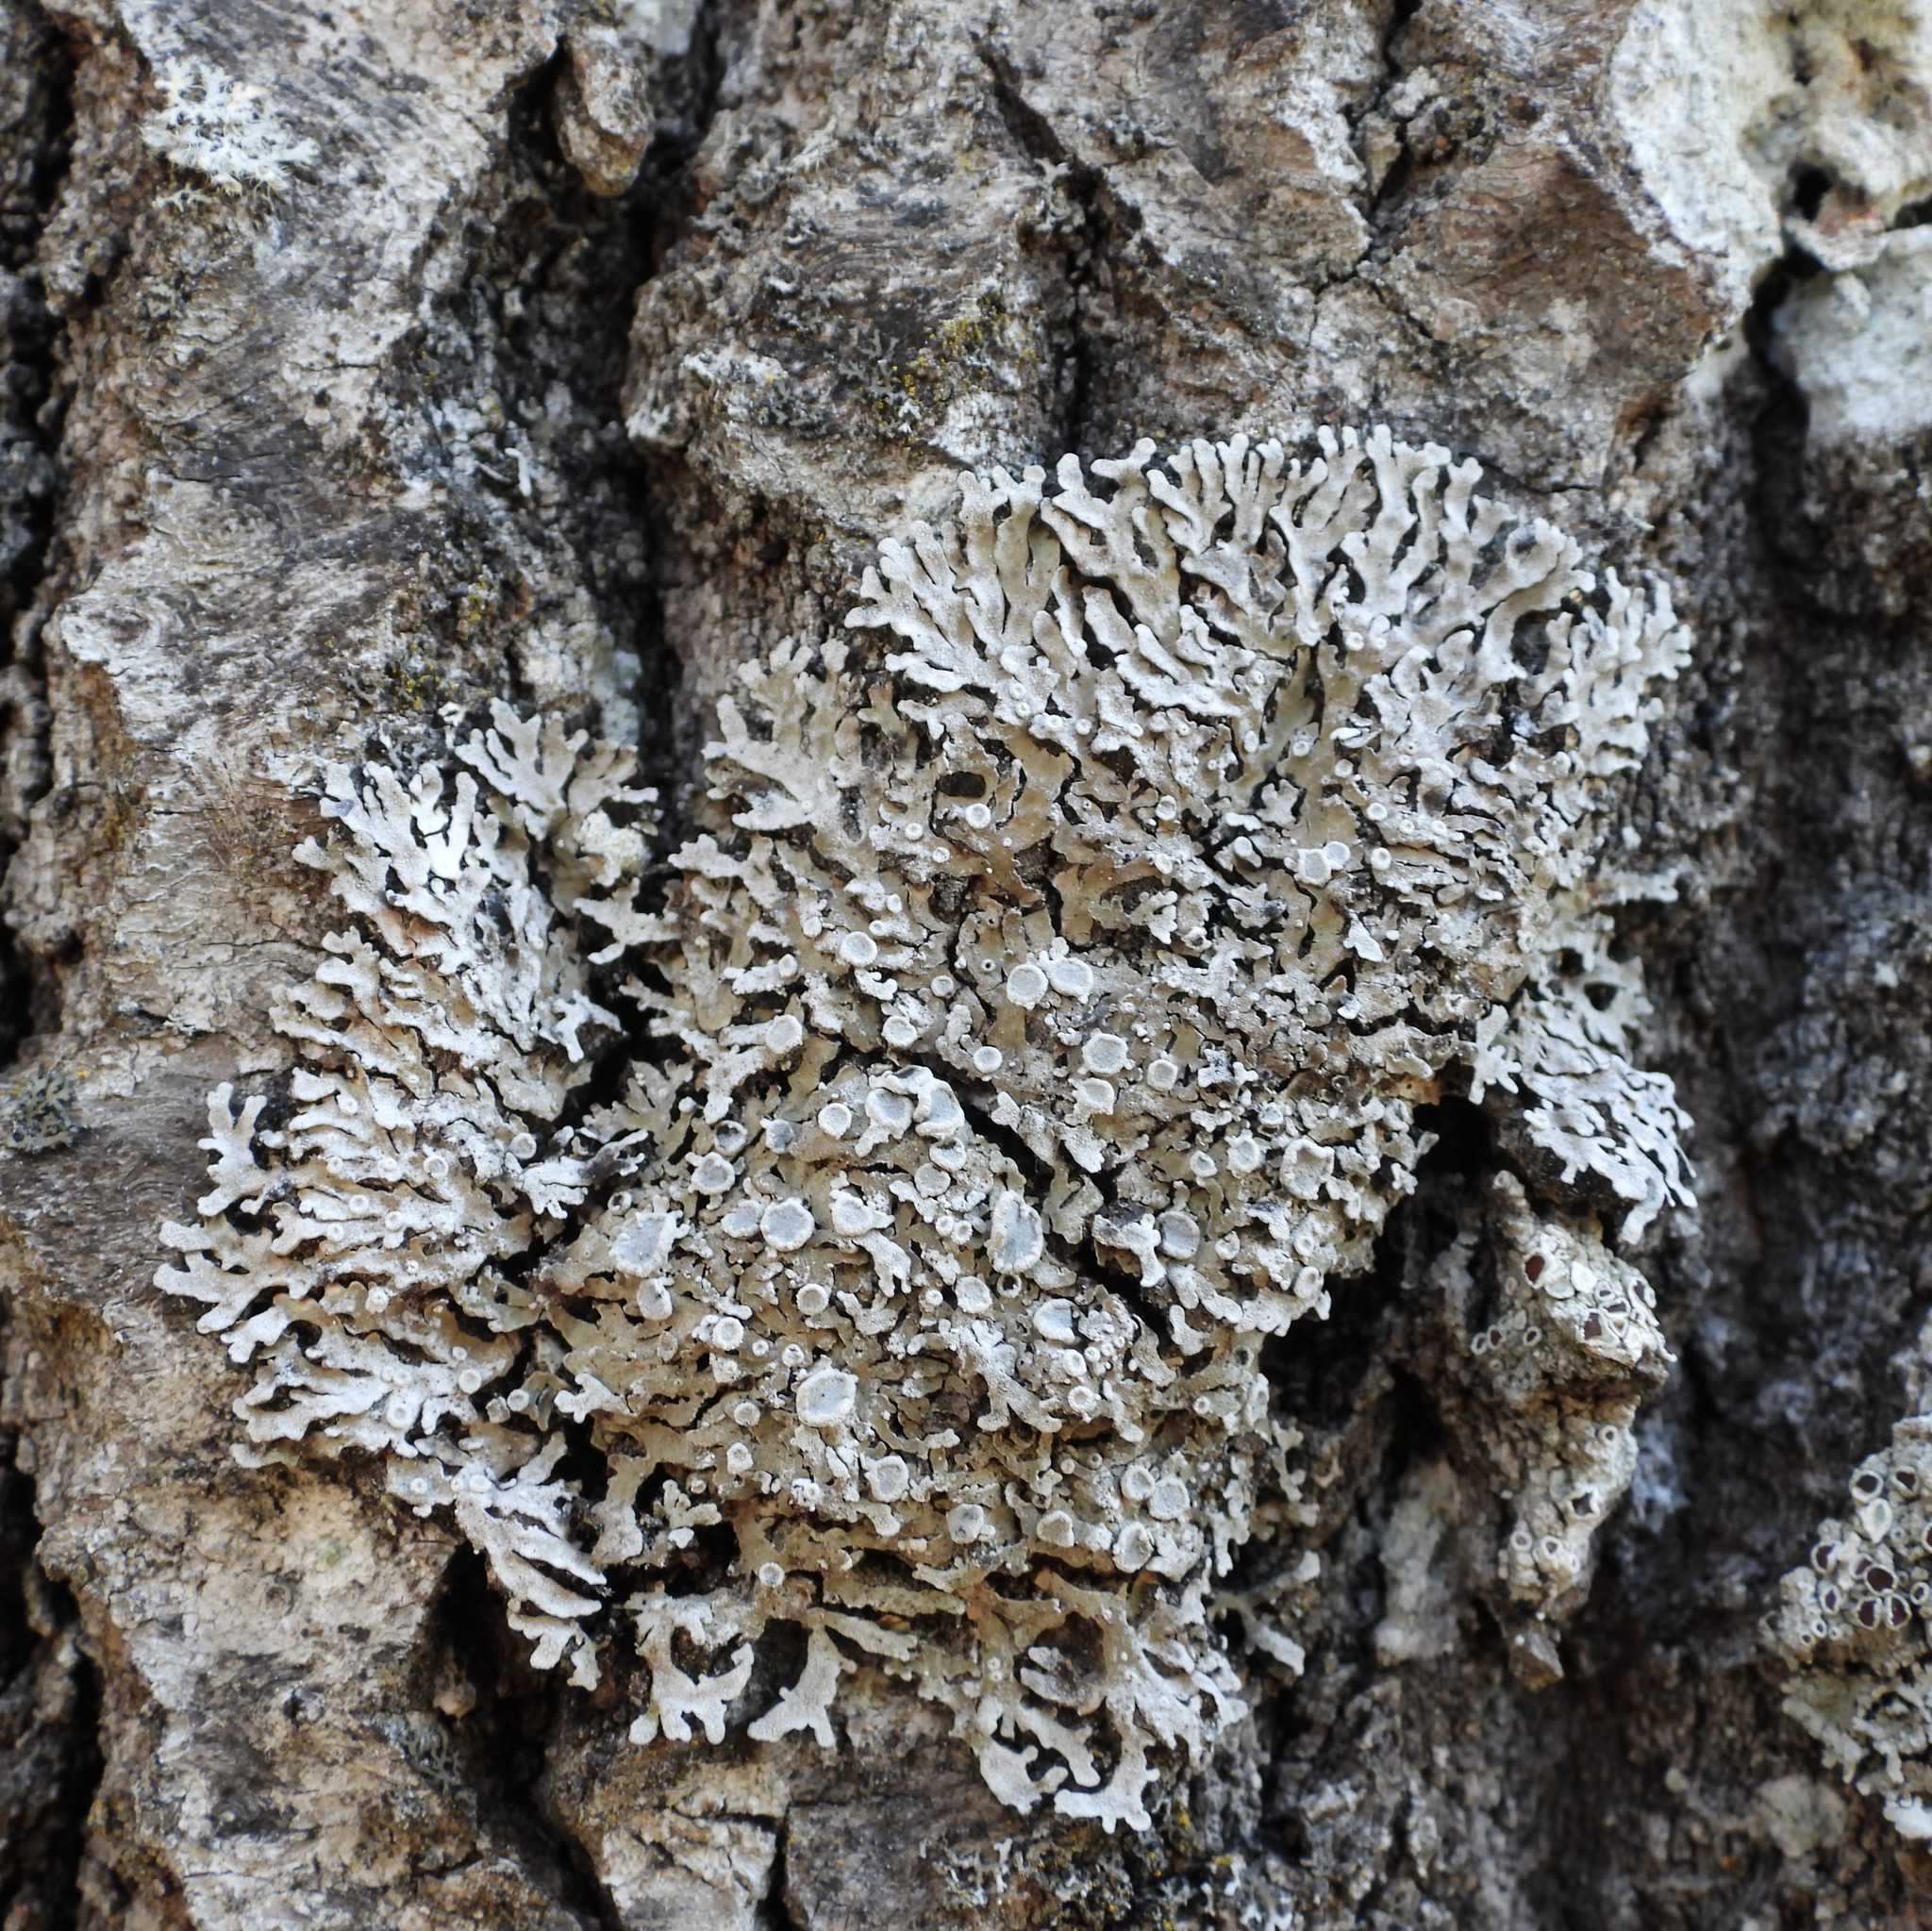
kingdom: Fungi
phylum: Ascomycota
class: Lecanoromycetes
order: Caliciales
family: Physciaceae
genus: Physconia
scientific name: Physconia distorta
